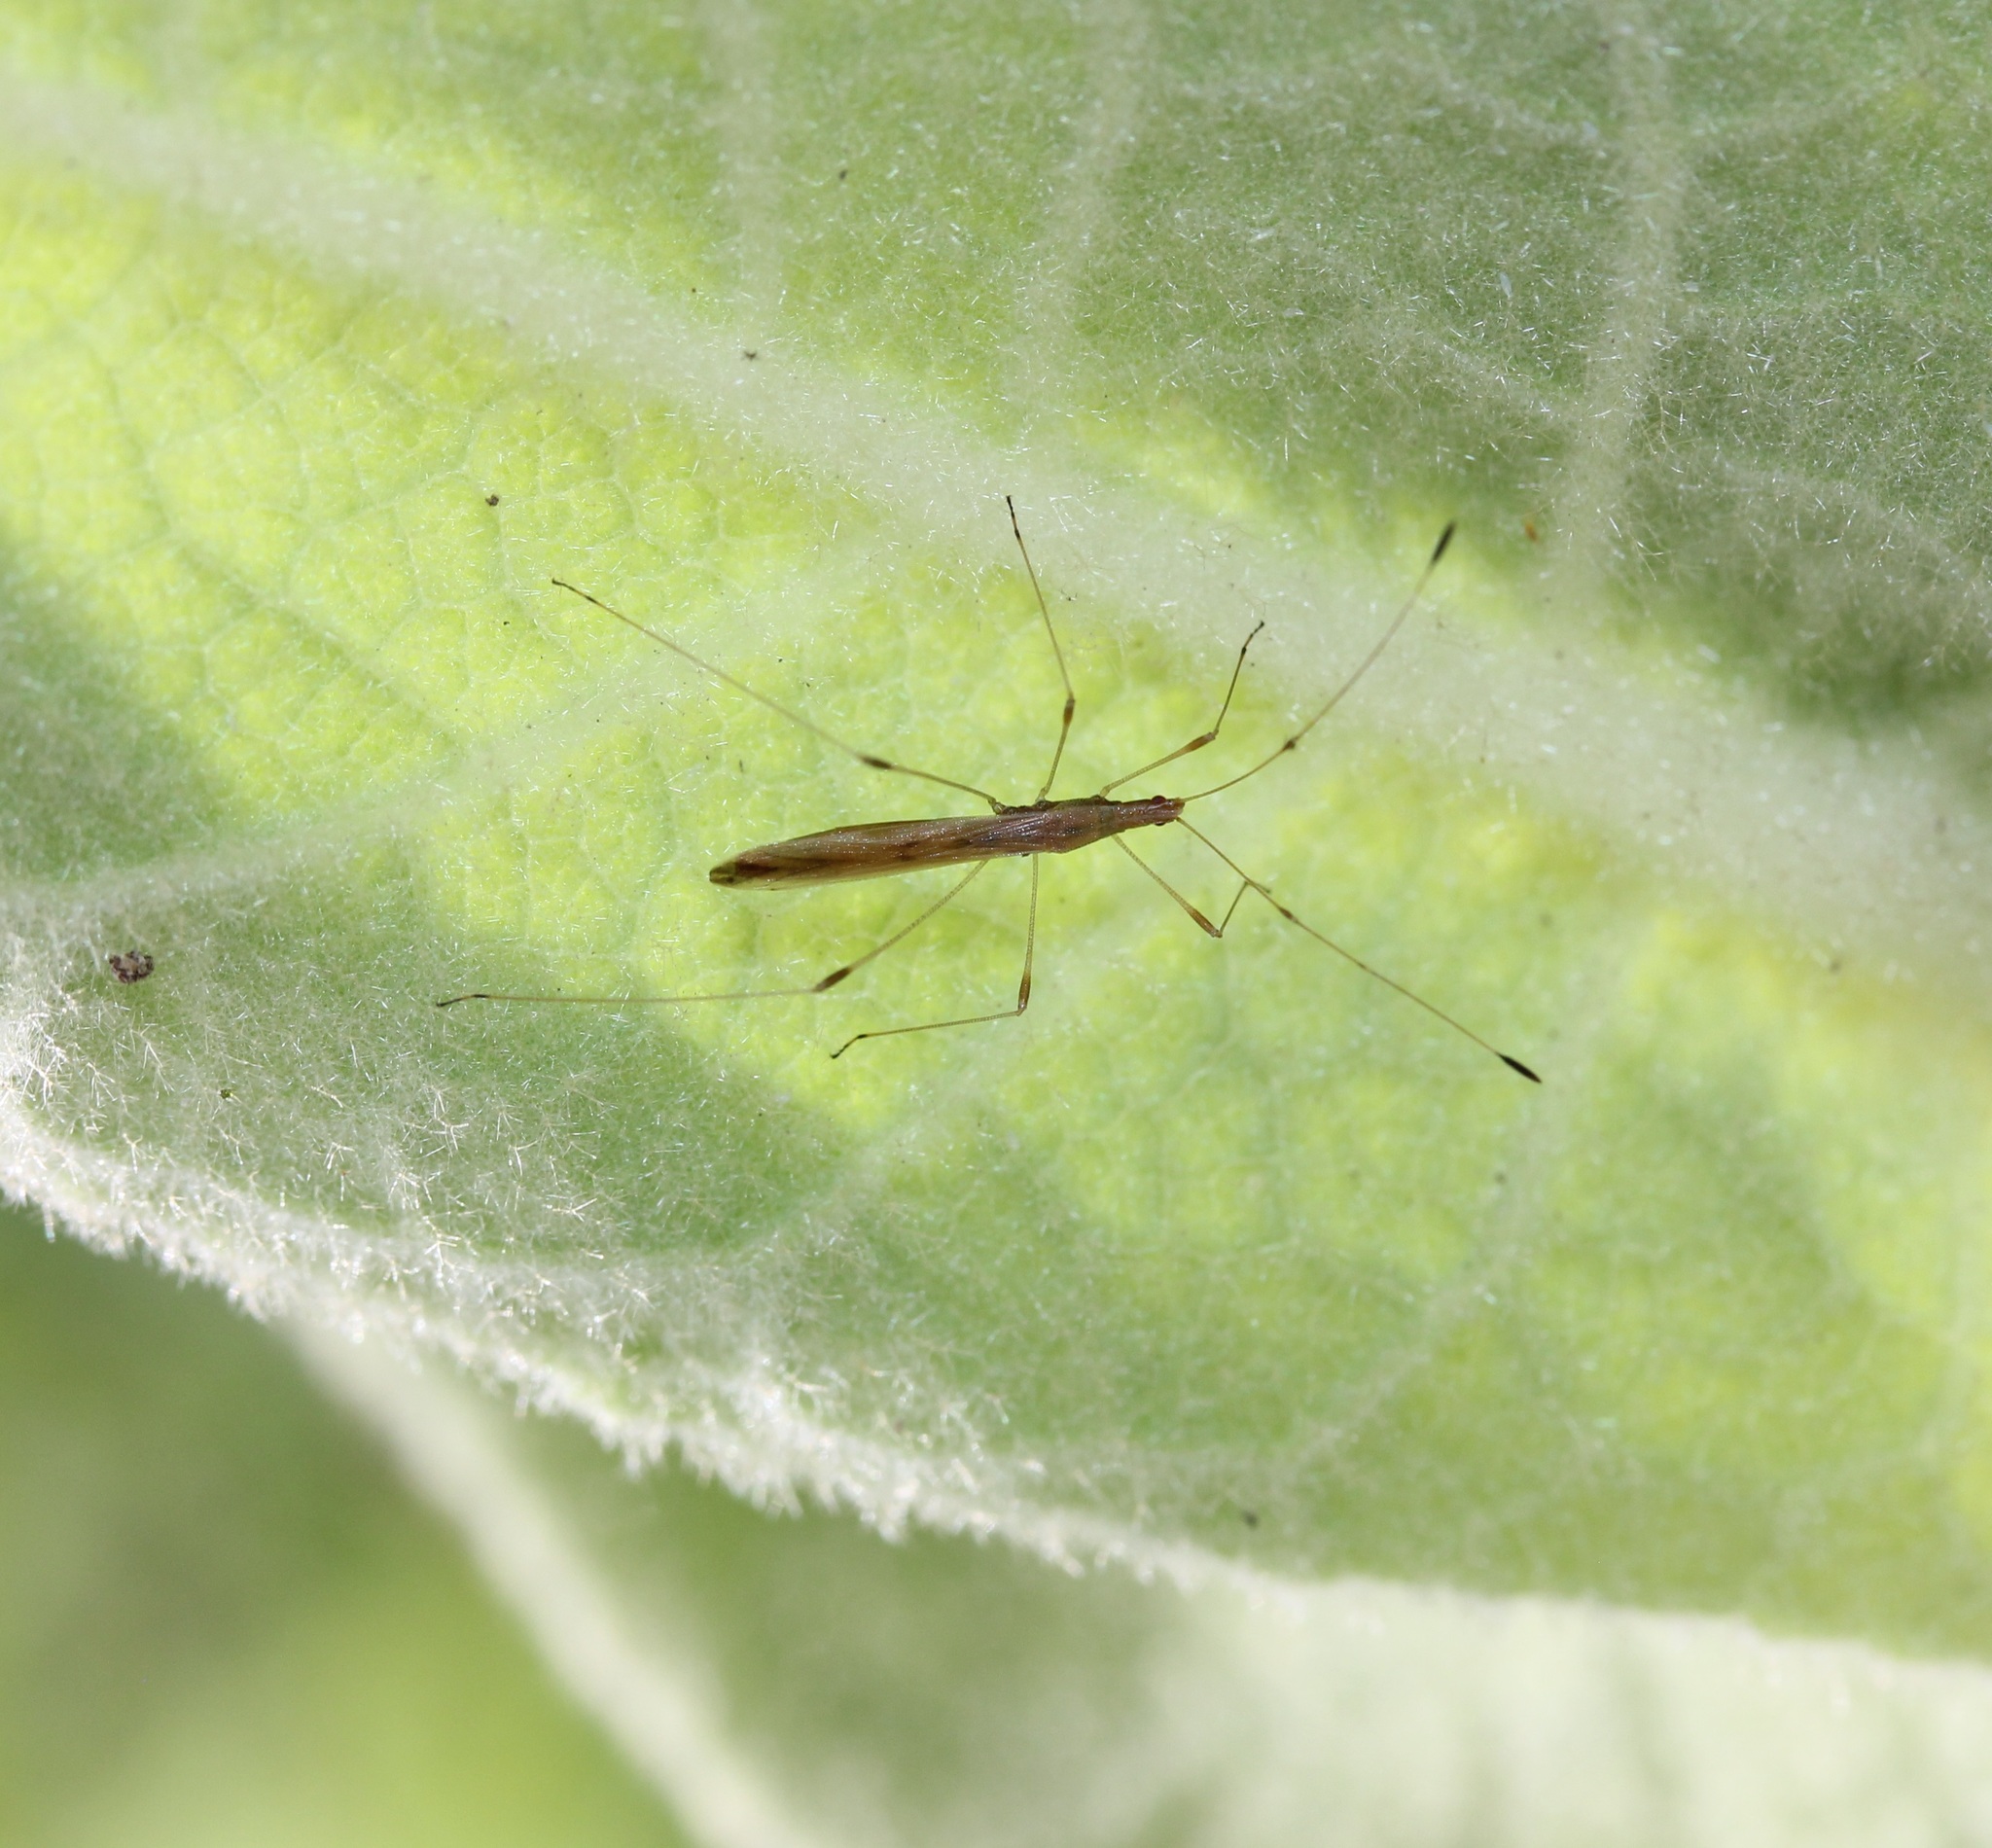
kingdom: Animalia
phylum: Arthropoda
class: Insecta
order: Hemiptera
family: Berytidae
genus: Neoneides
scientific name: Neoneides muticus
